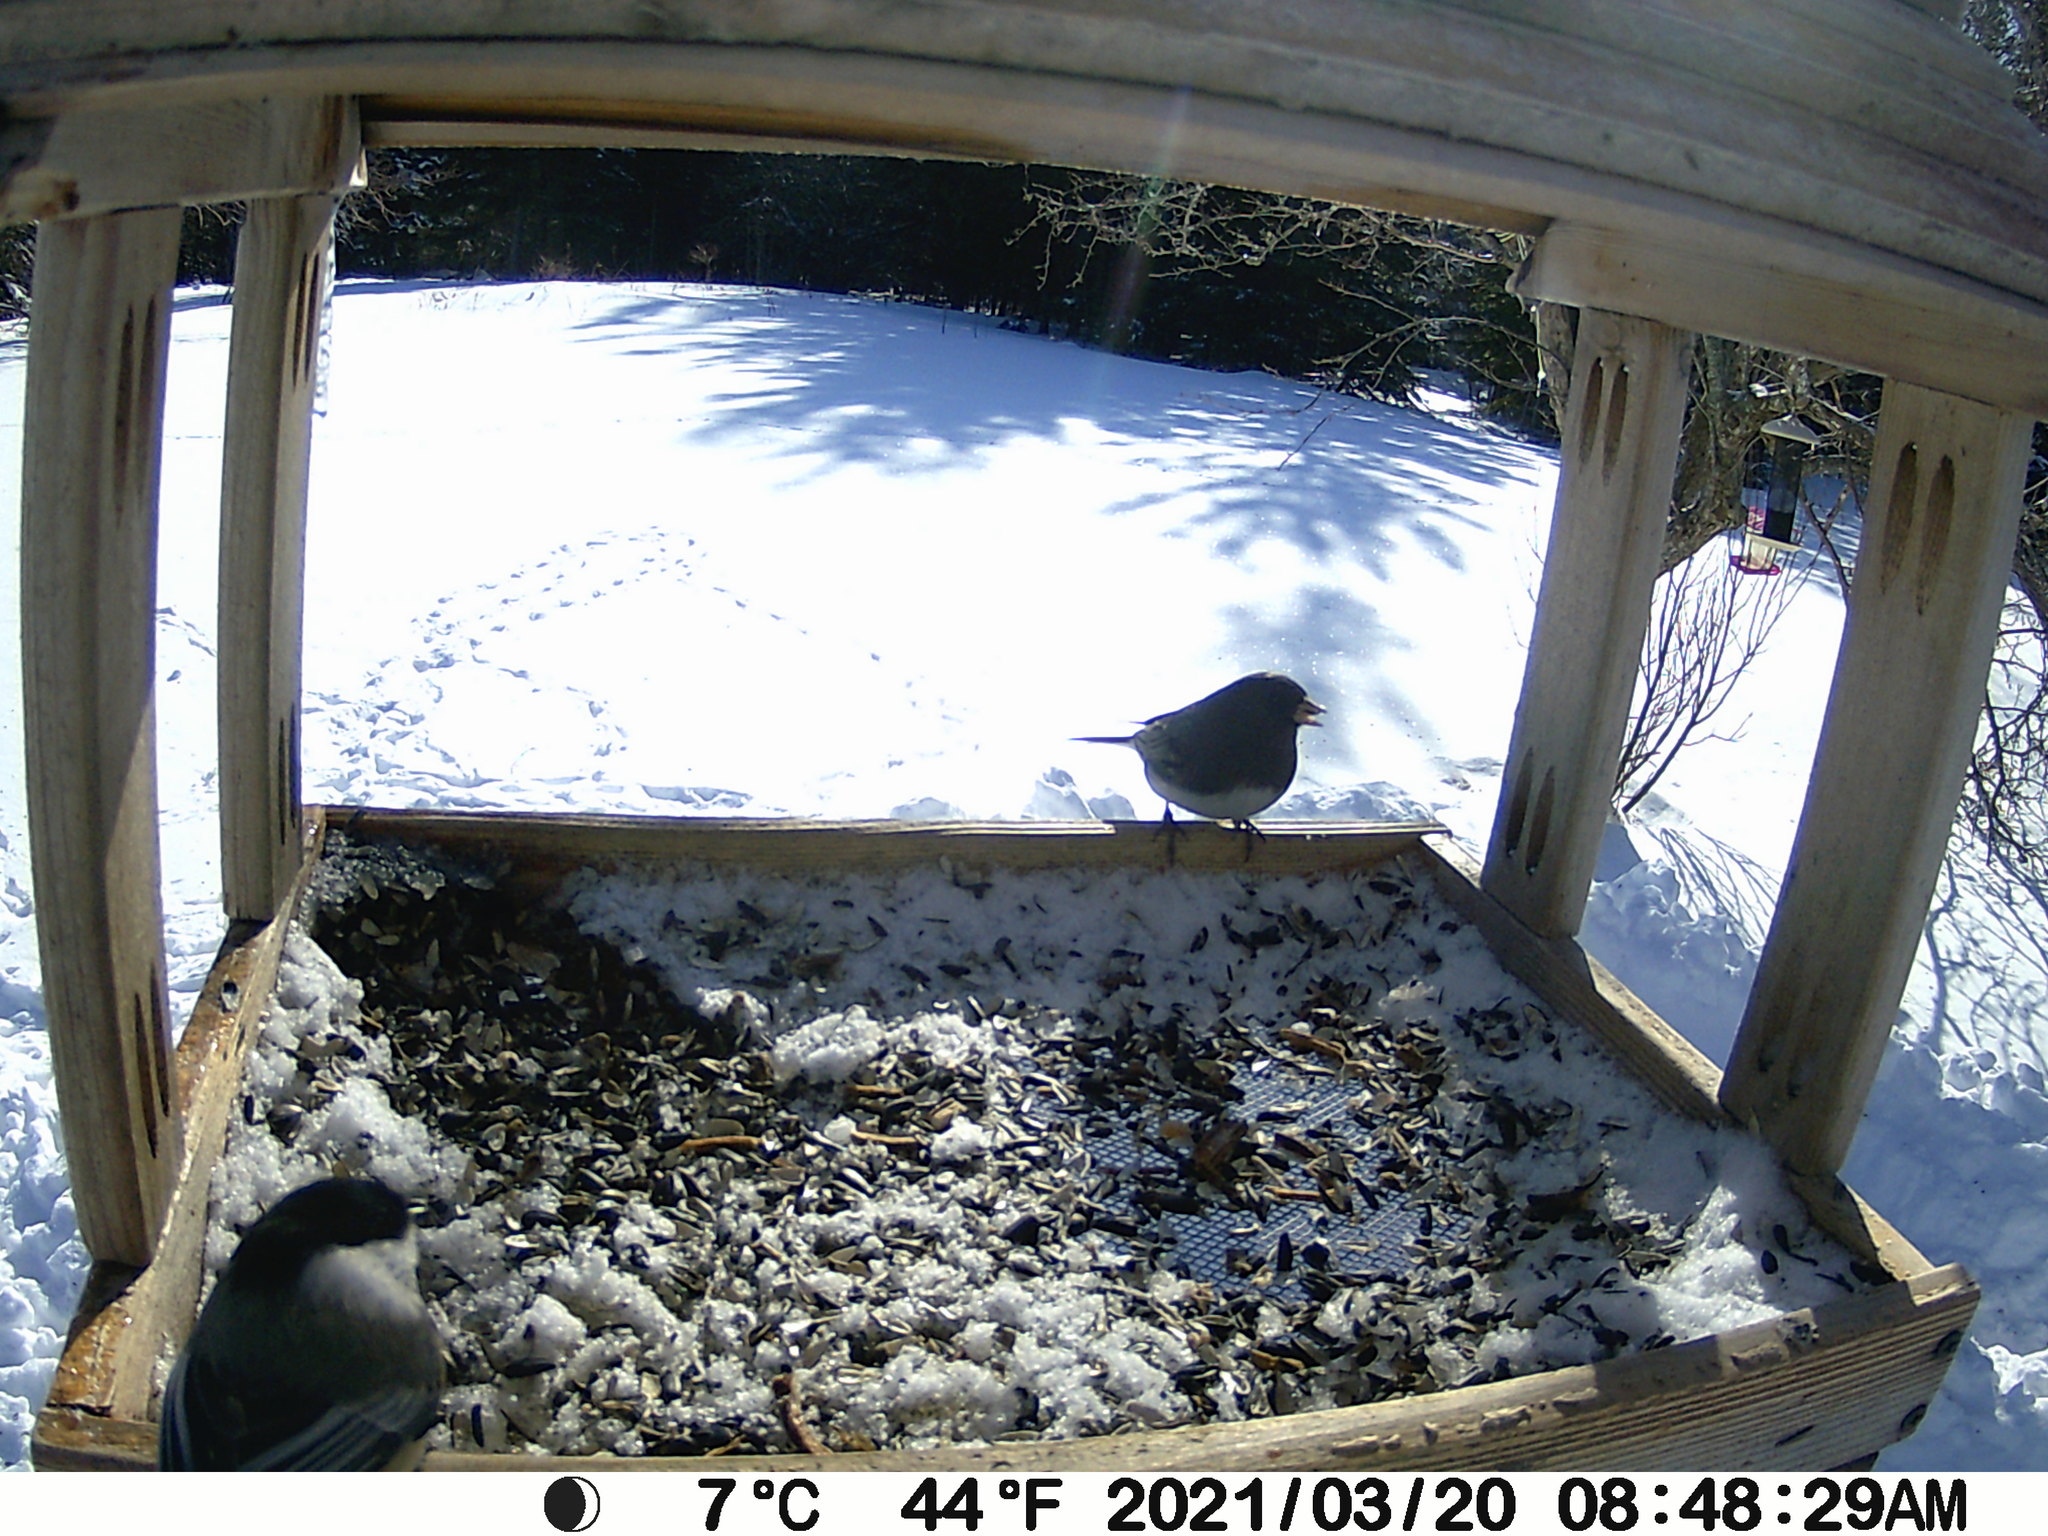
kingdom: Animalia
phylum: Chordata
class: Aves
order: Passeriformes
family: Passerellidae
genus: Junco
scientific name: Junco hyemalis
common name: Dark-eyed junco
